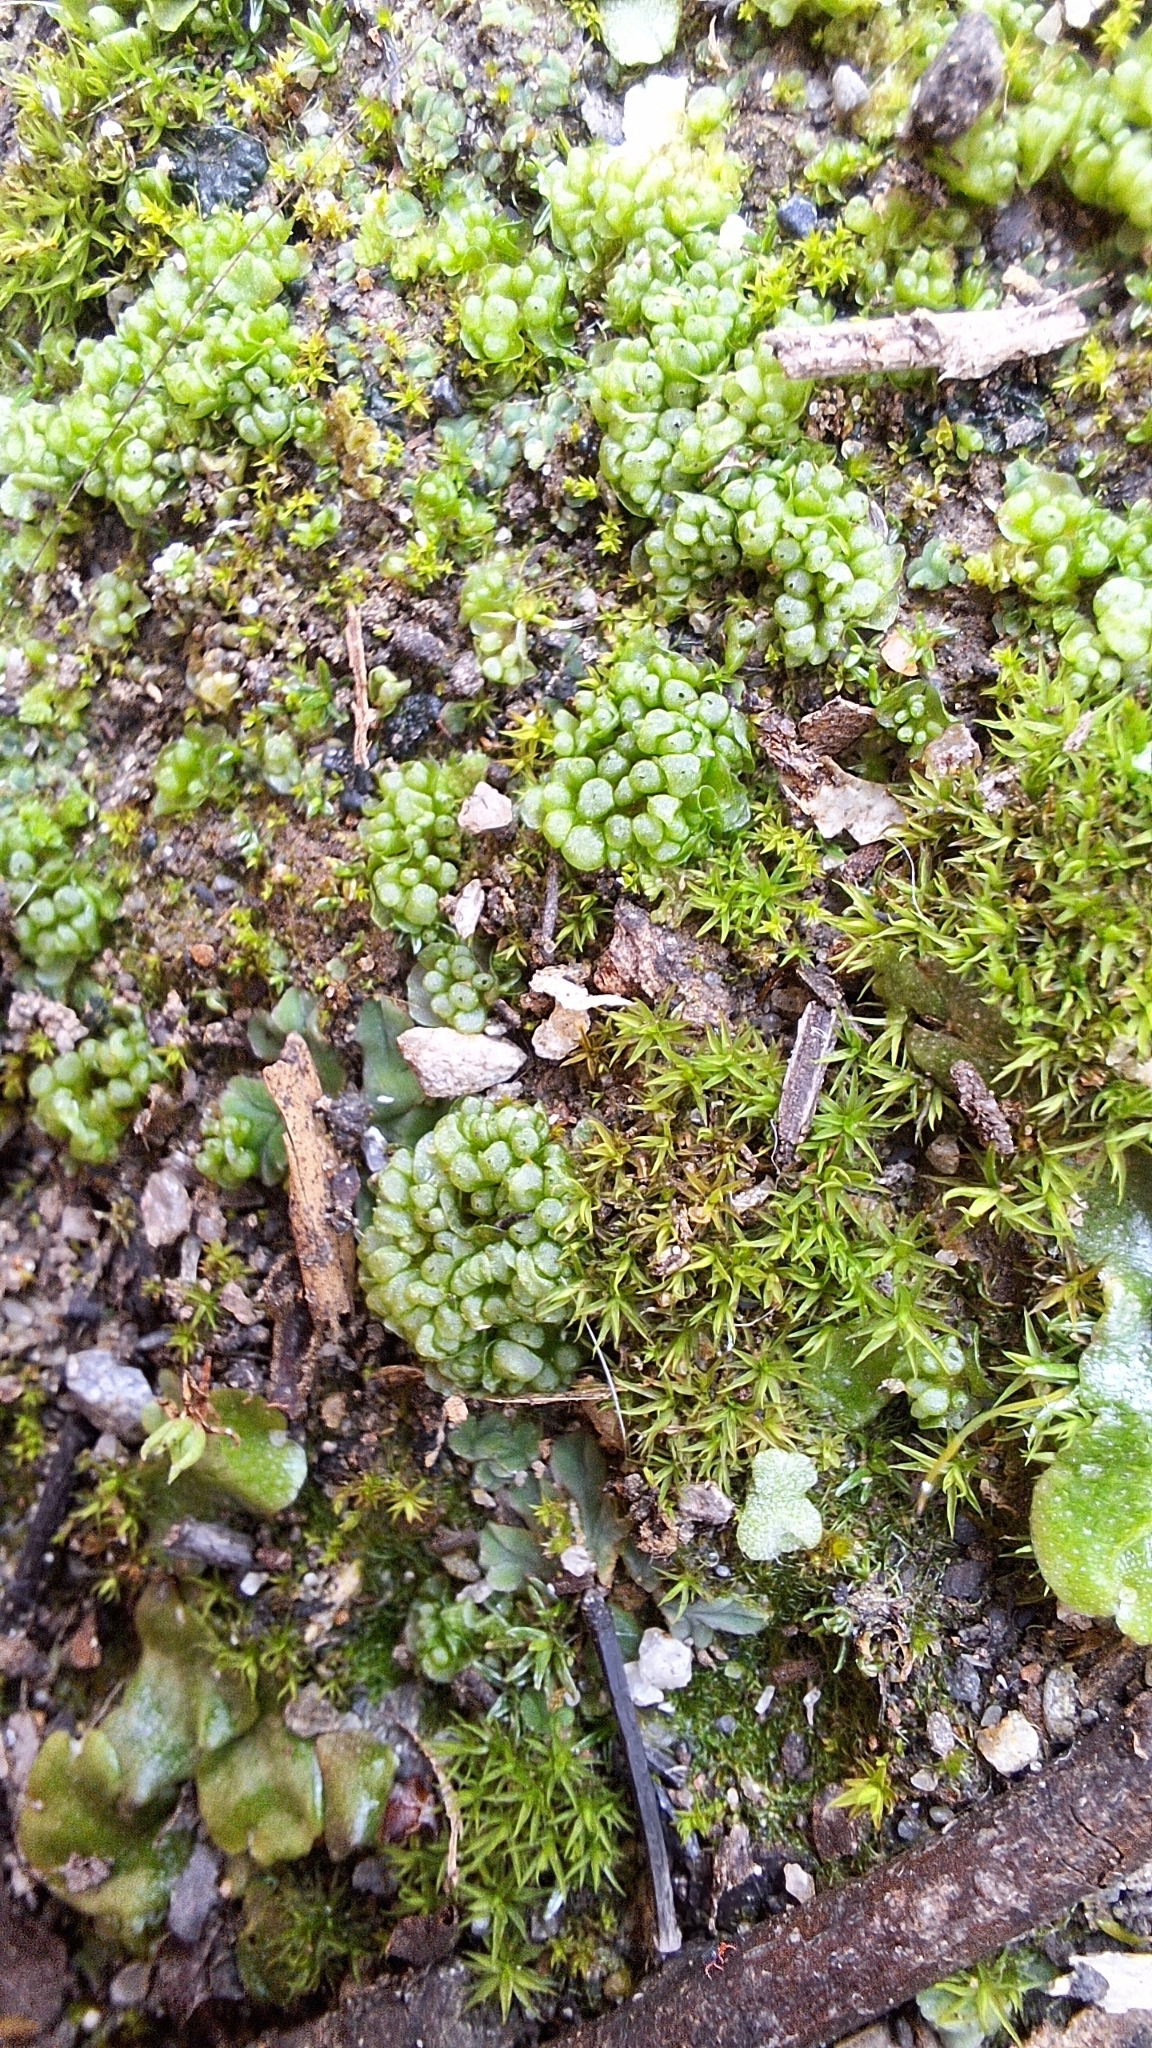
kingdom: Plantae
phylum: Marchantiophyta
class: Marchantiopsida
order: Sphaerocarpales
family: Sphaerocarpaceae
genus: Sphaerocarpos
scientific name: Sphaerocarpos texanus
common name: Texas balloonwort
